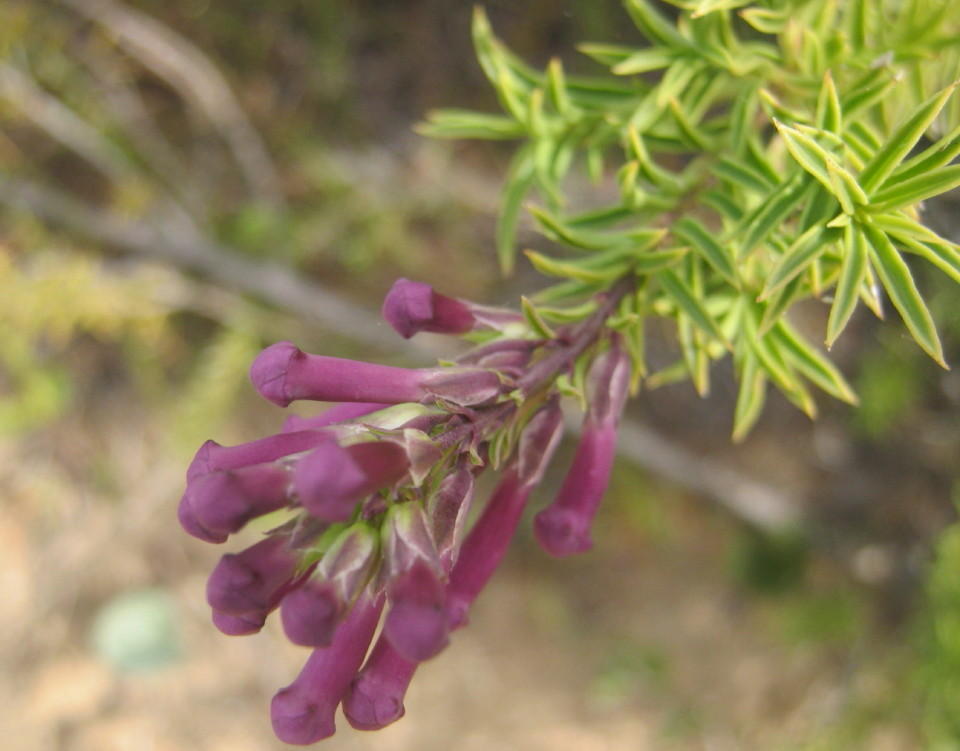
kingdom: Plantae
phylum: Tracheophyta
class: Magnoliopsida
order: Lamiales
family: Scrophulariaceae
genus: Freylinia
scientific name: Freylinia densiflora
